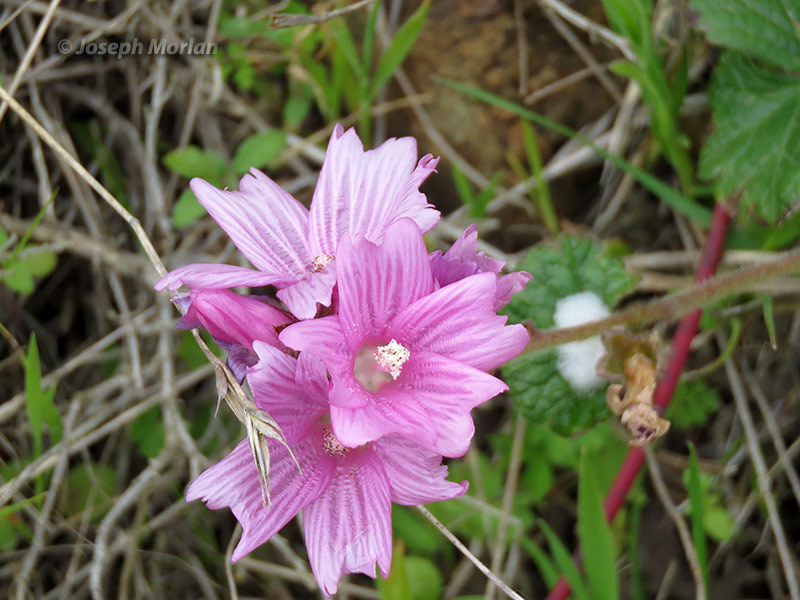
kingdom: Plantae
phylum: Tracheophyta
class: Magnoliopsida
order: Malvales
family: Malvaceae
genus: Sidalcea
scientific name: Sidalcea malviflora
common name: Greek mallow
